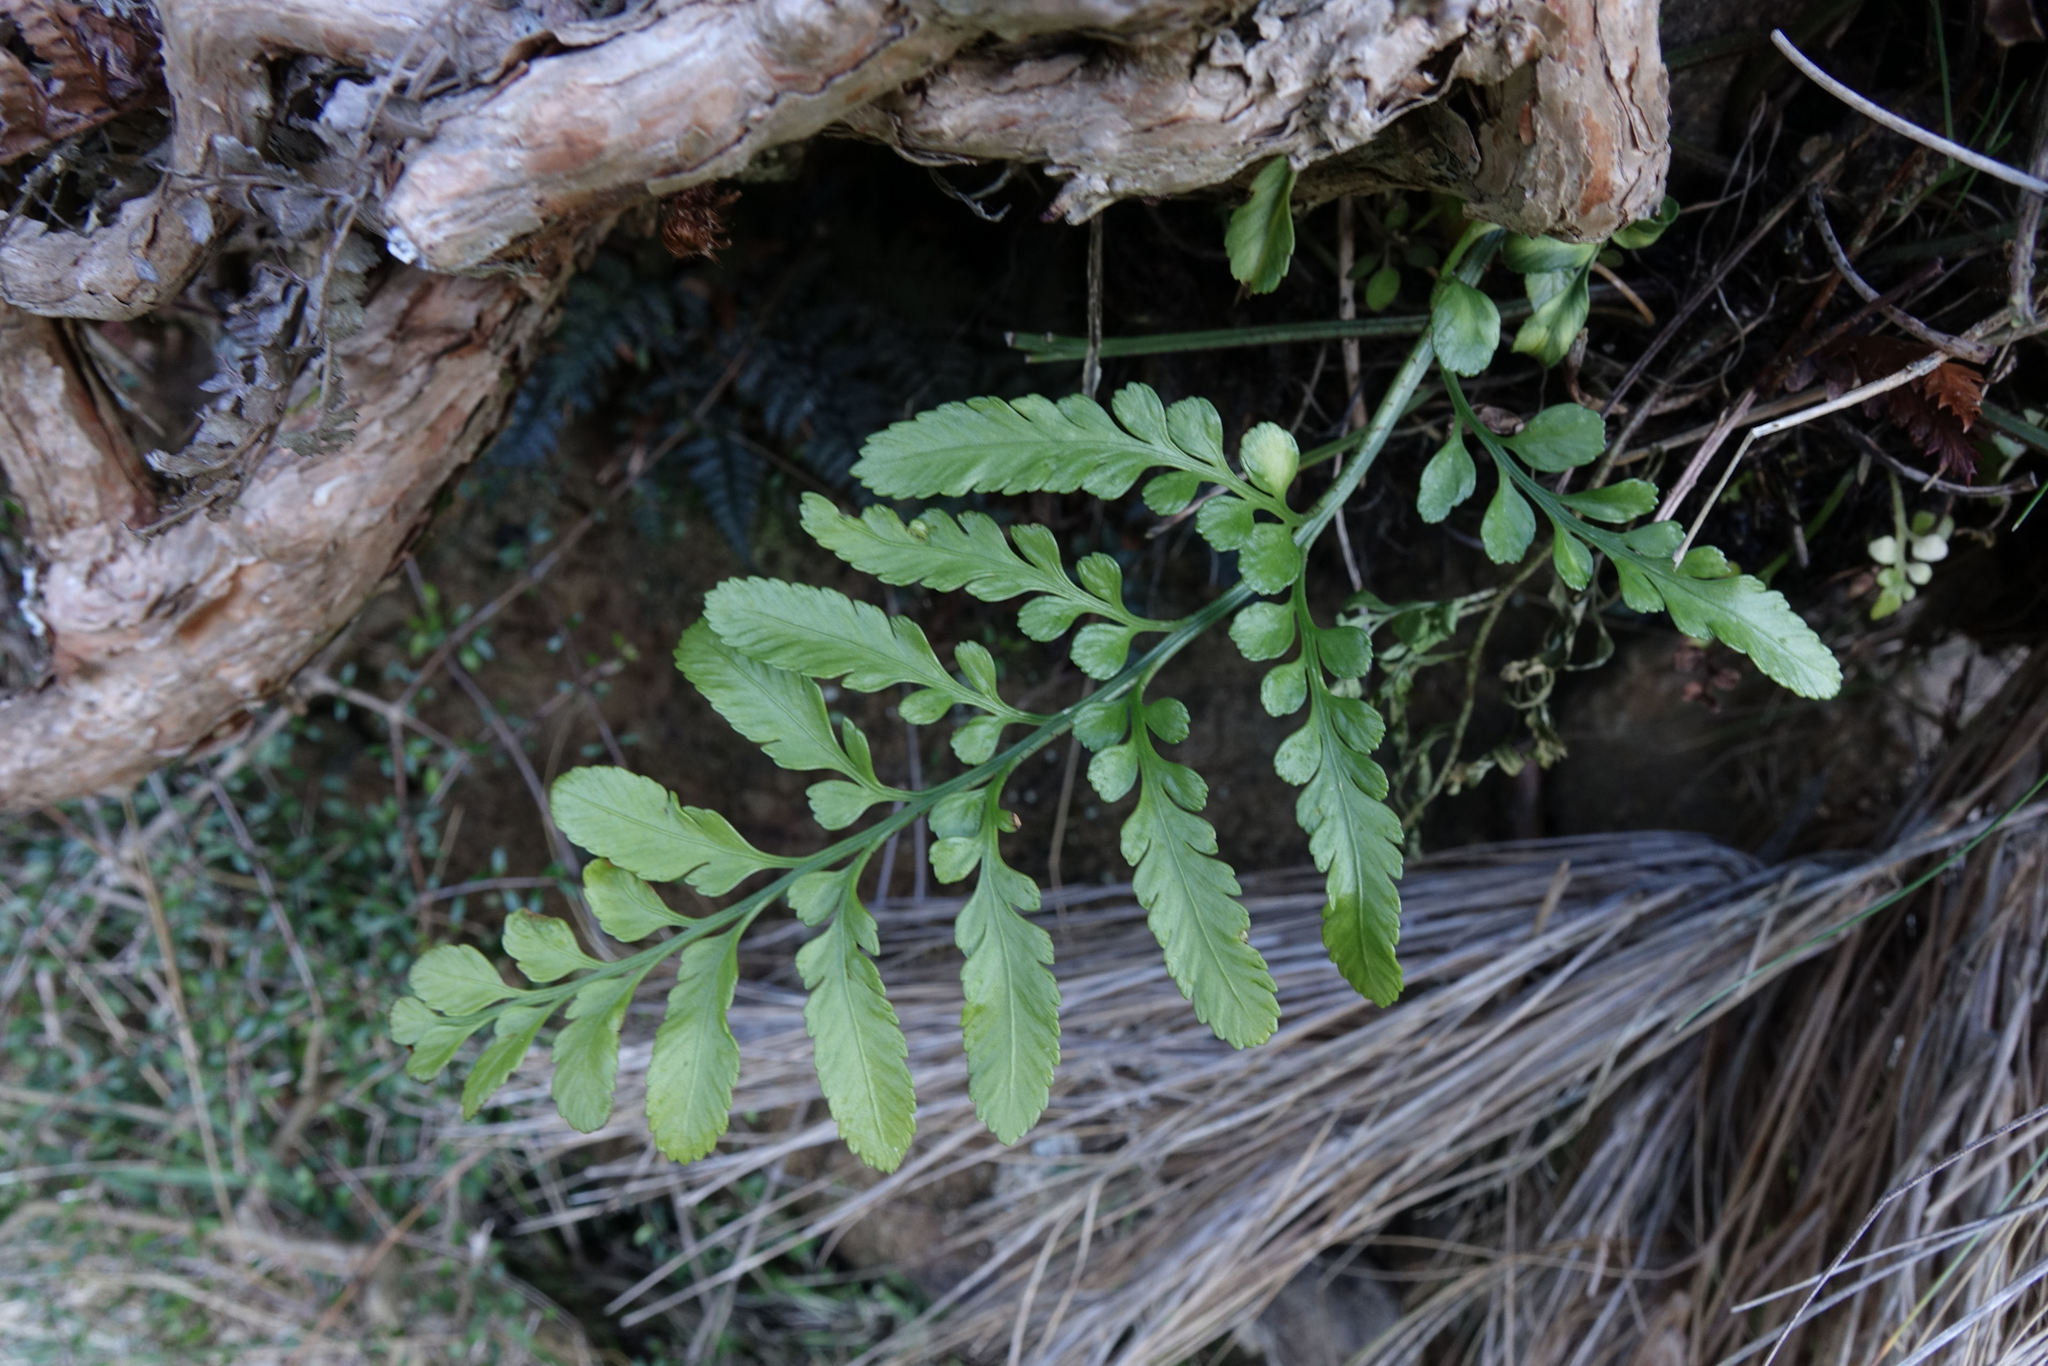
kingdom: Plantae
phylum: Tracheophyta
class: Polypodiopsida
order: Polypodiales
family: Aspleniaceae
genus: Asplenium
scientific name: Asplenium lyallii
